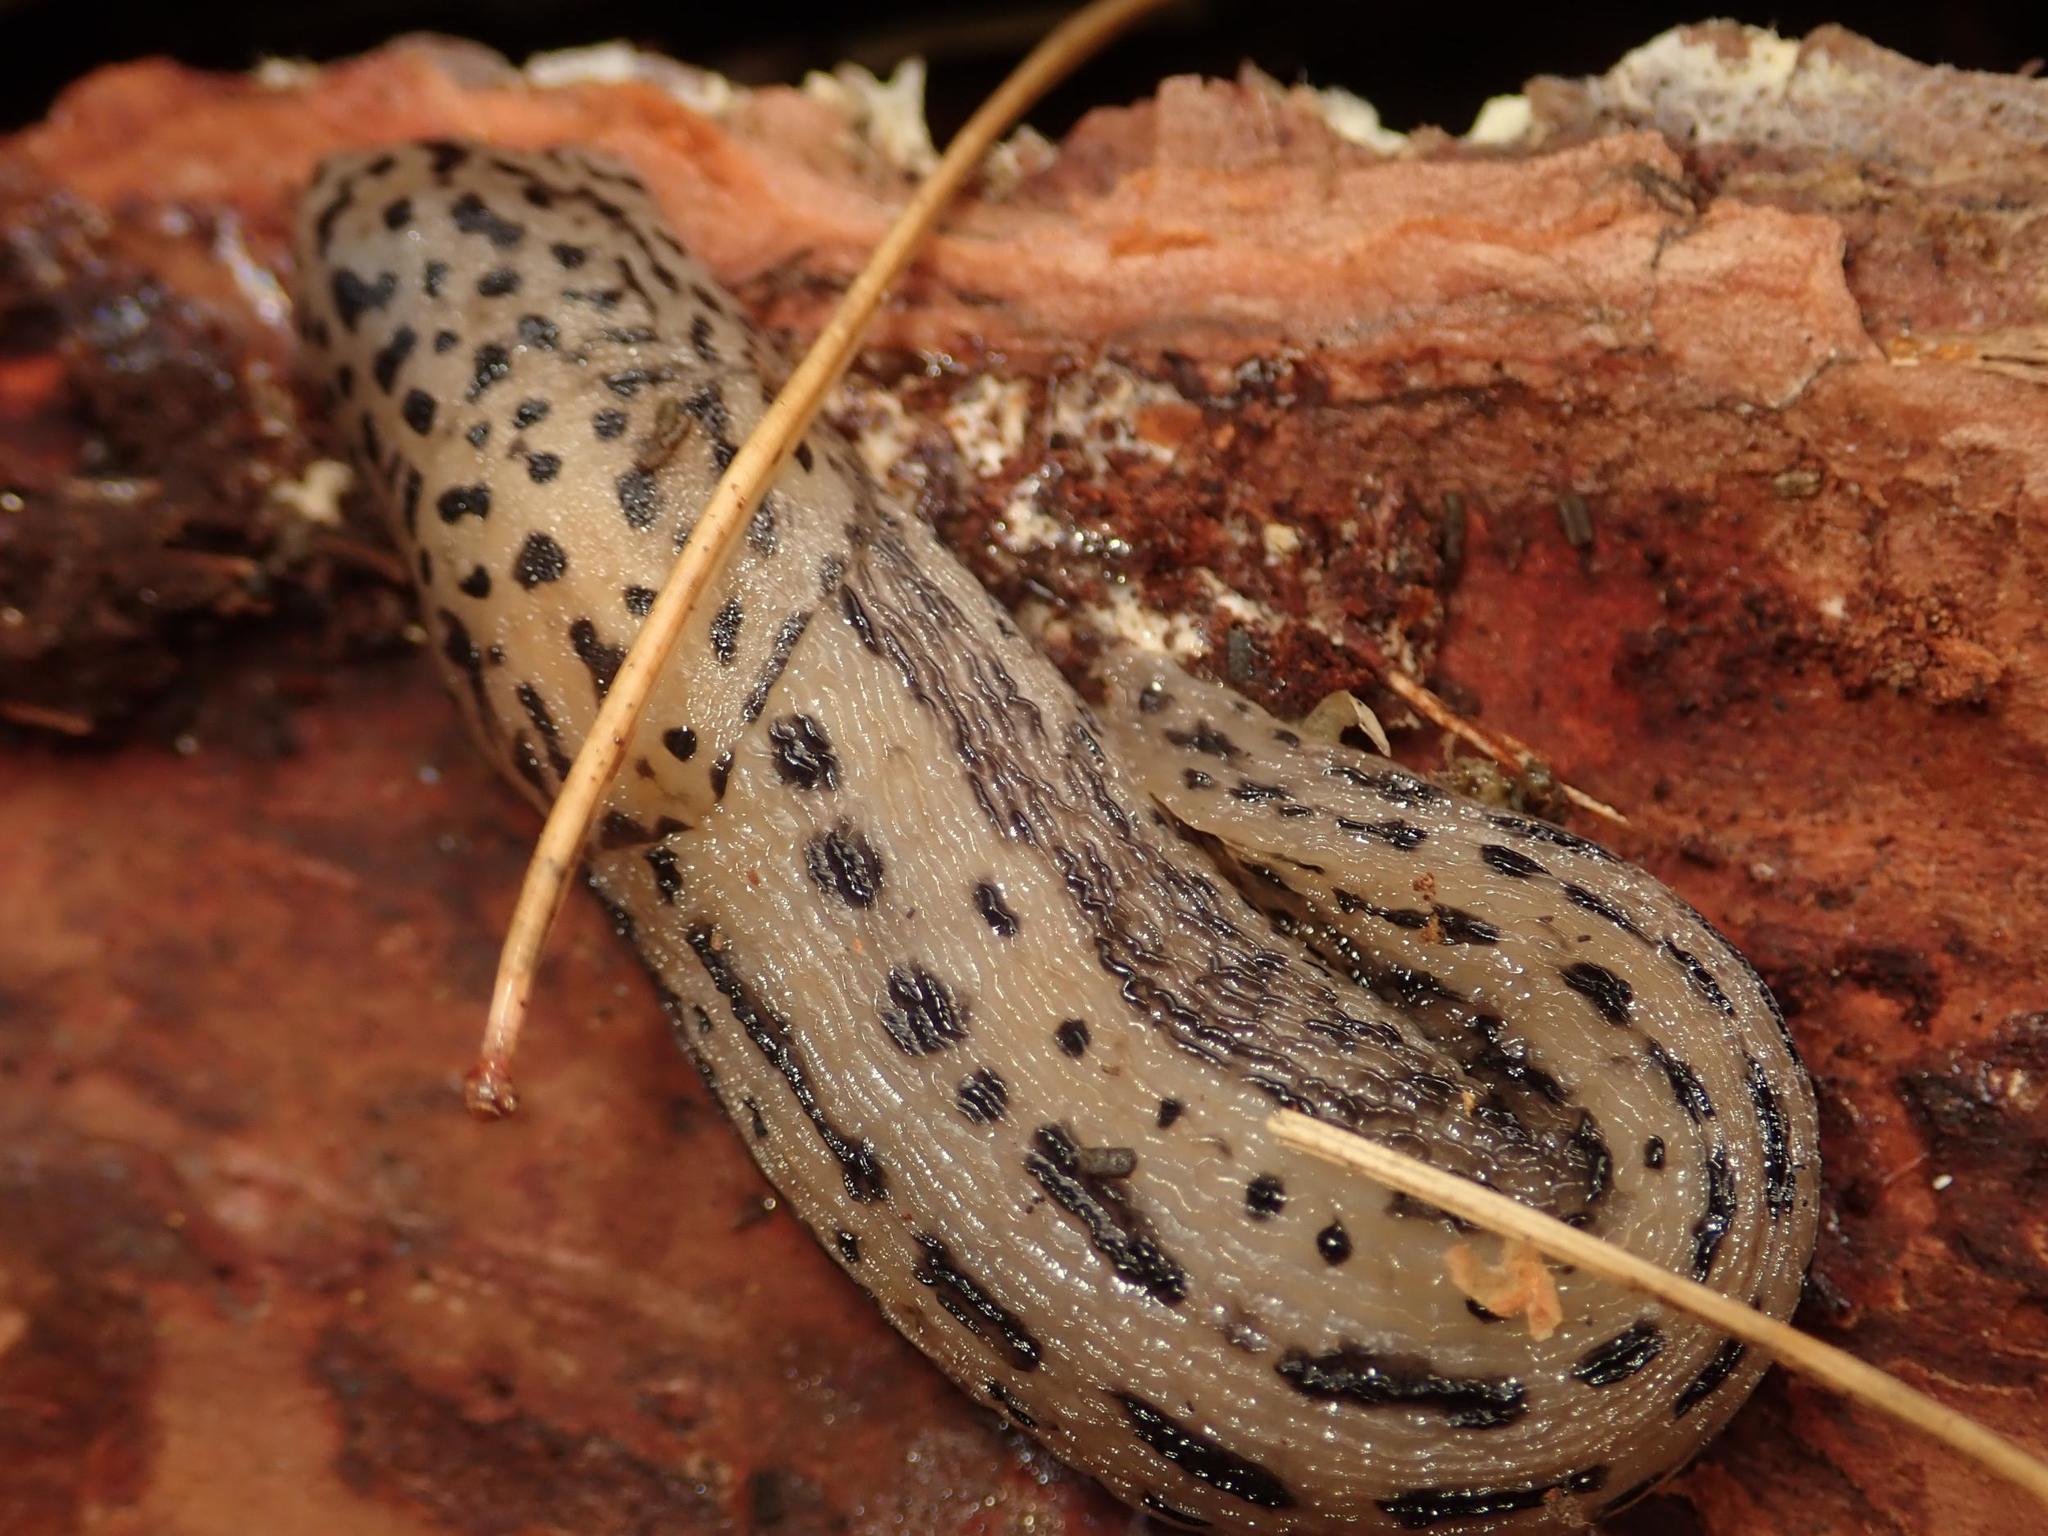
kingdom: Animalia
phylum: Mollusca
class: Gastropoda
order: Stylommatophora
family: Limacidae
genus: Limax
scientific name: Limax maximus
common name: Great grey slug
